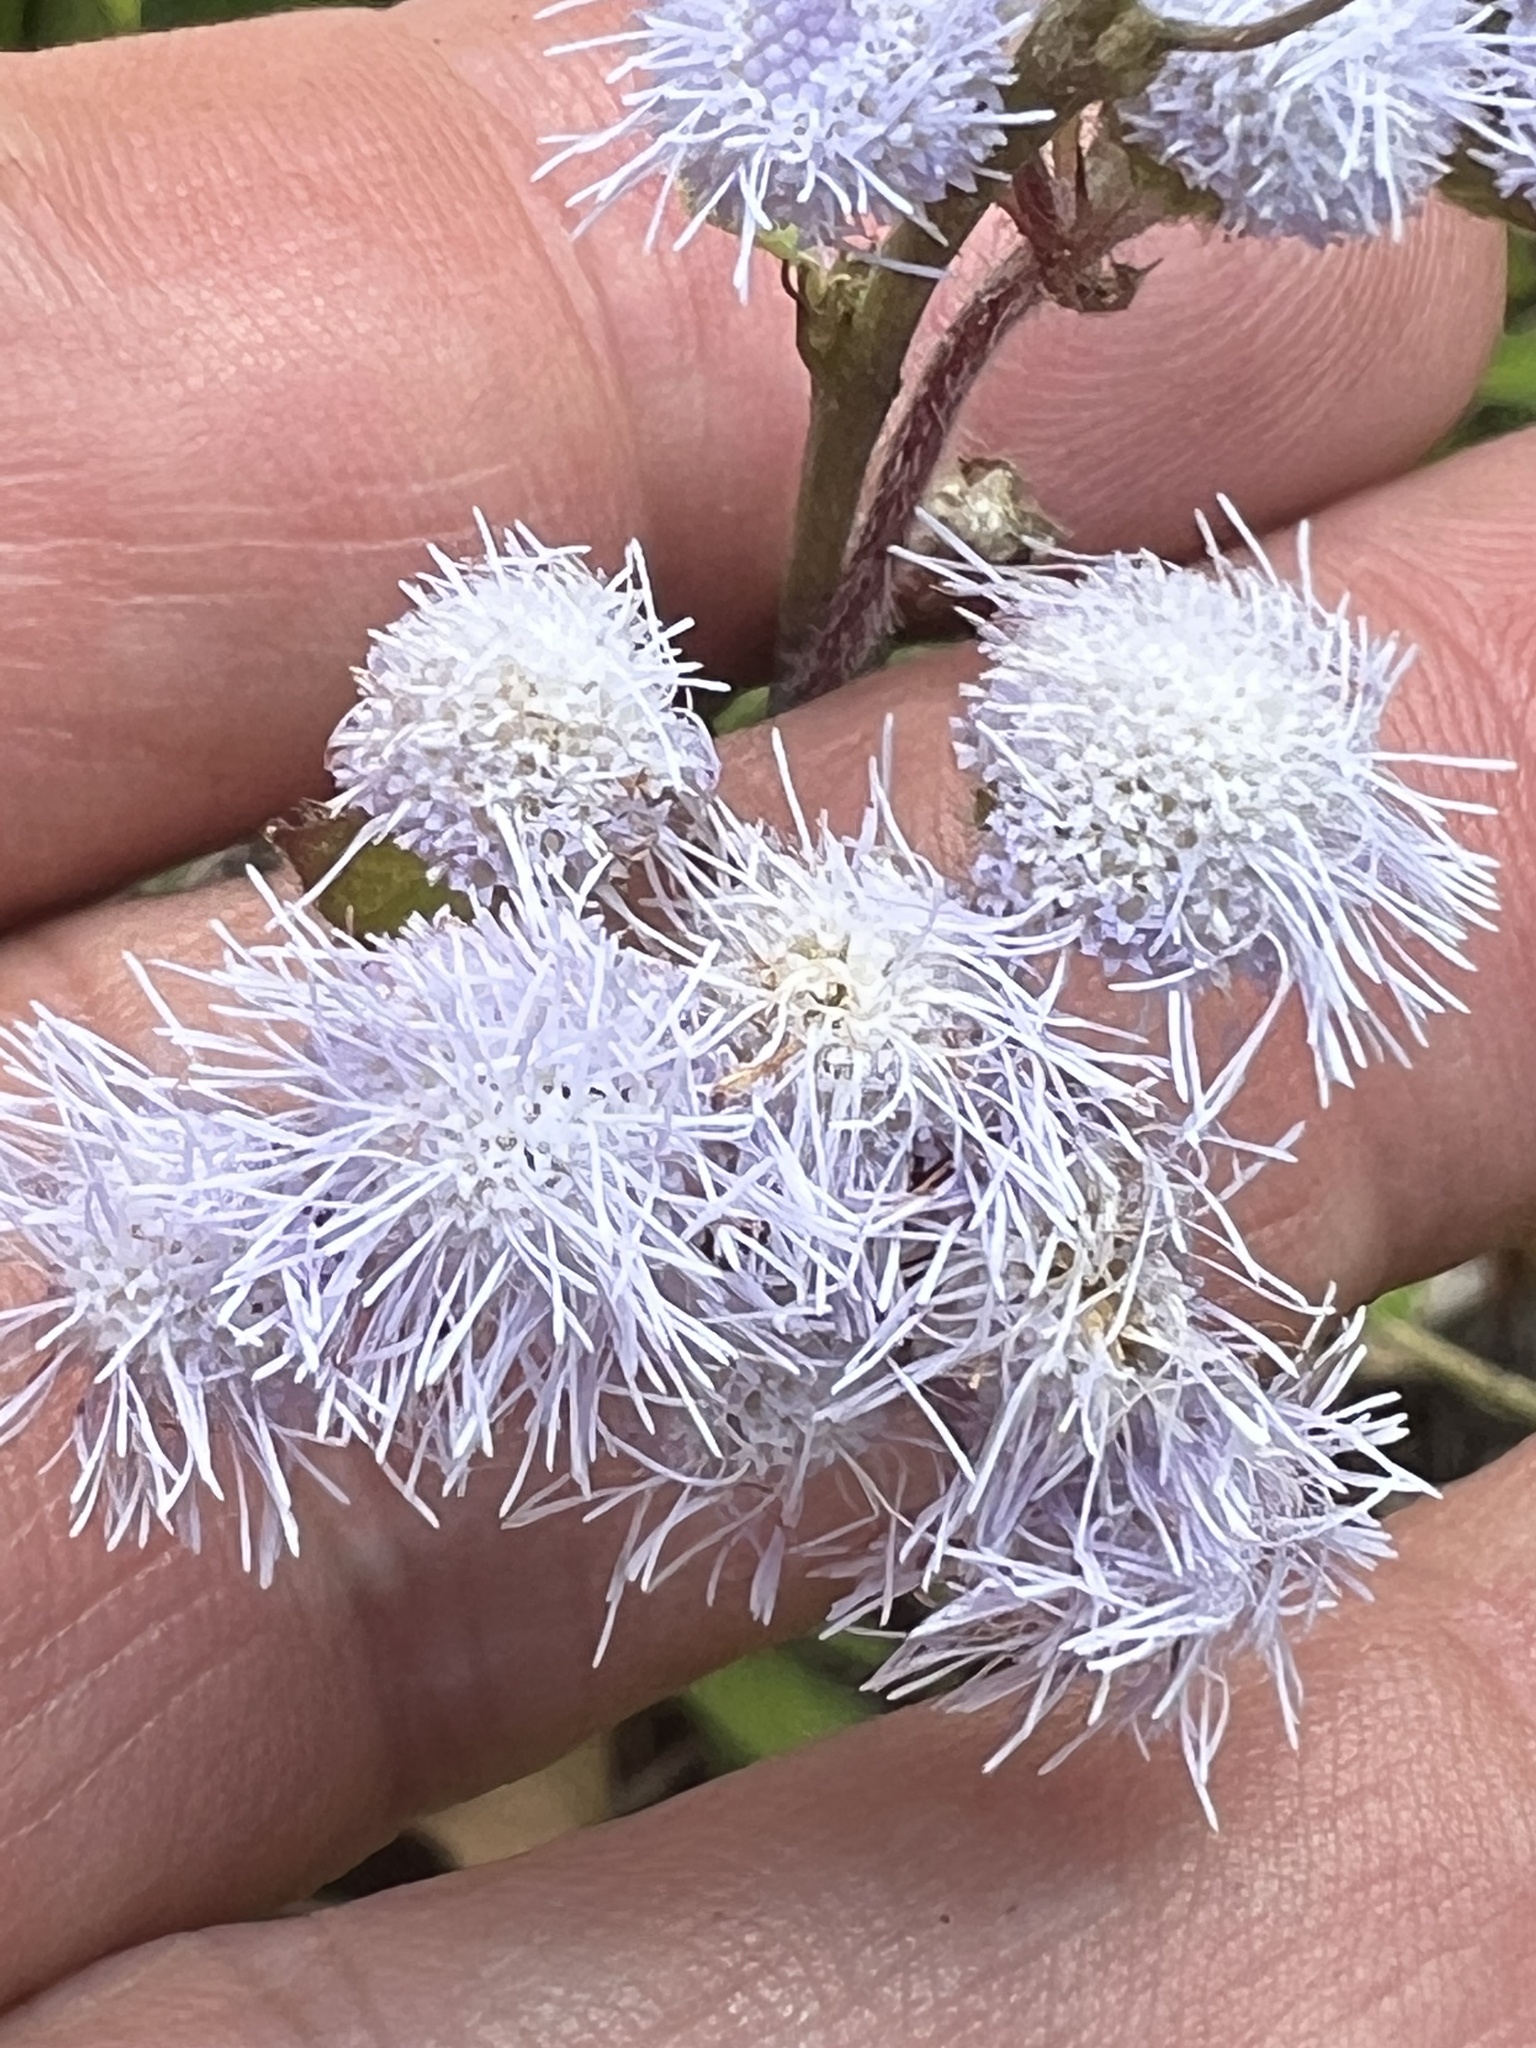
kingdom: Plantae
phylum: Tracheophyta
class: Magnoliopsida
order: Asterales
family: Asteraceae
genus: Ageratum
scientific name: Ageratum houstonianum
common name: Bluemink
